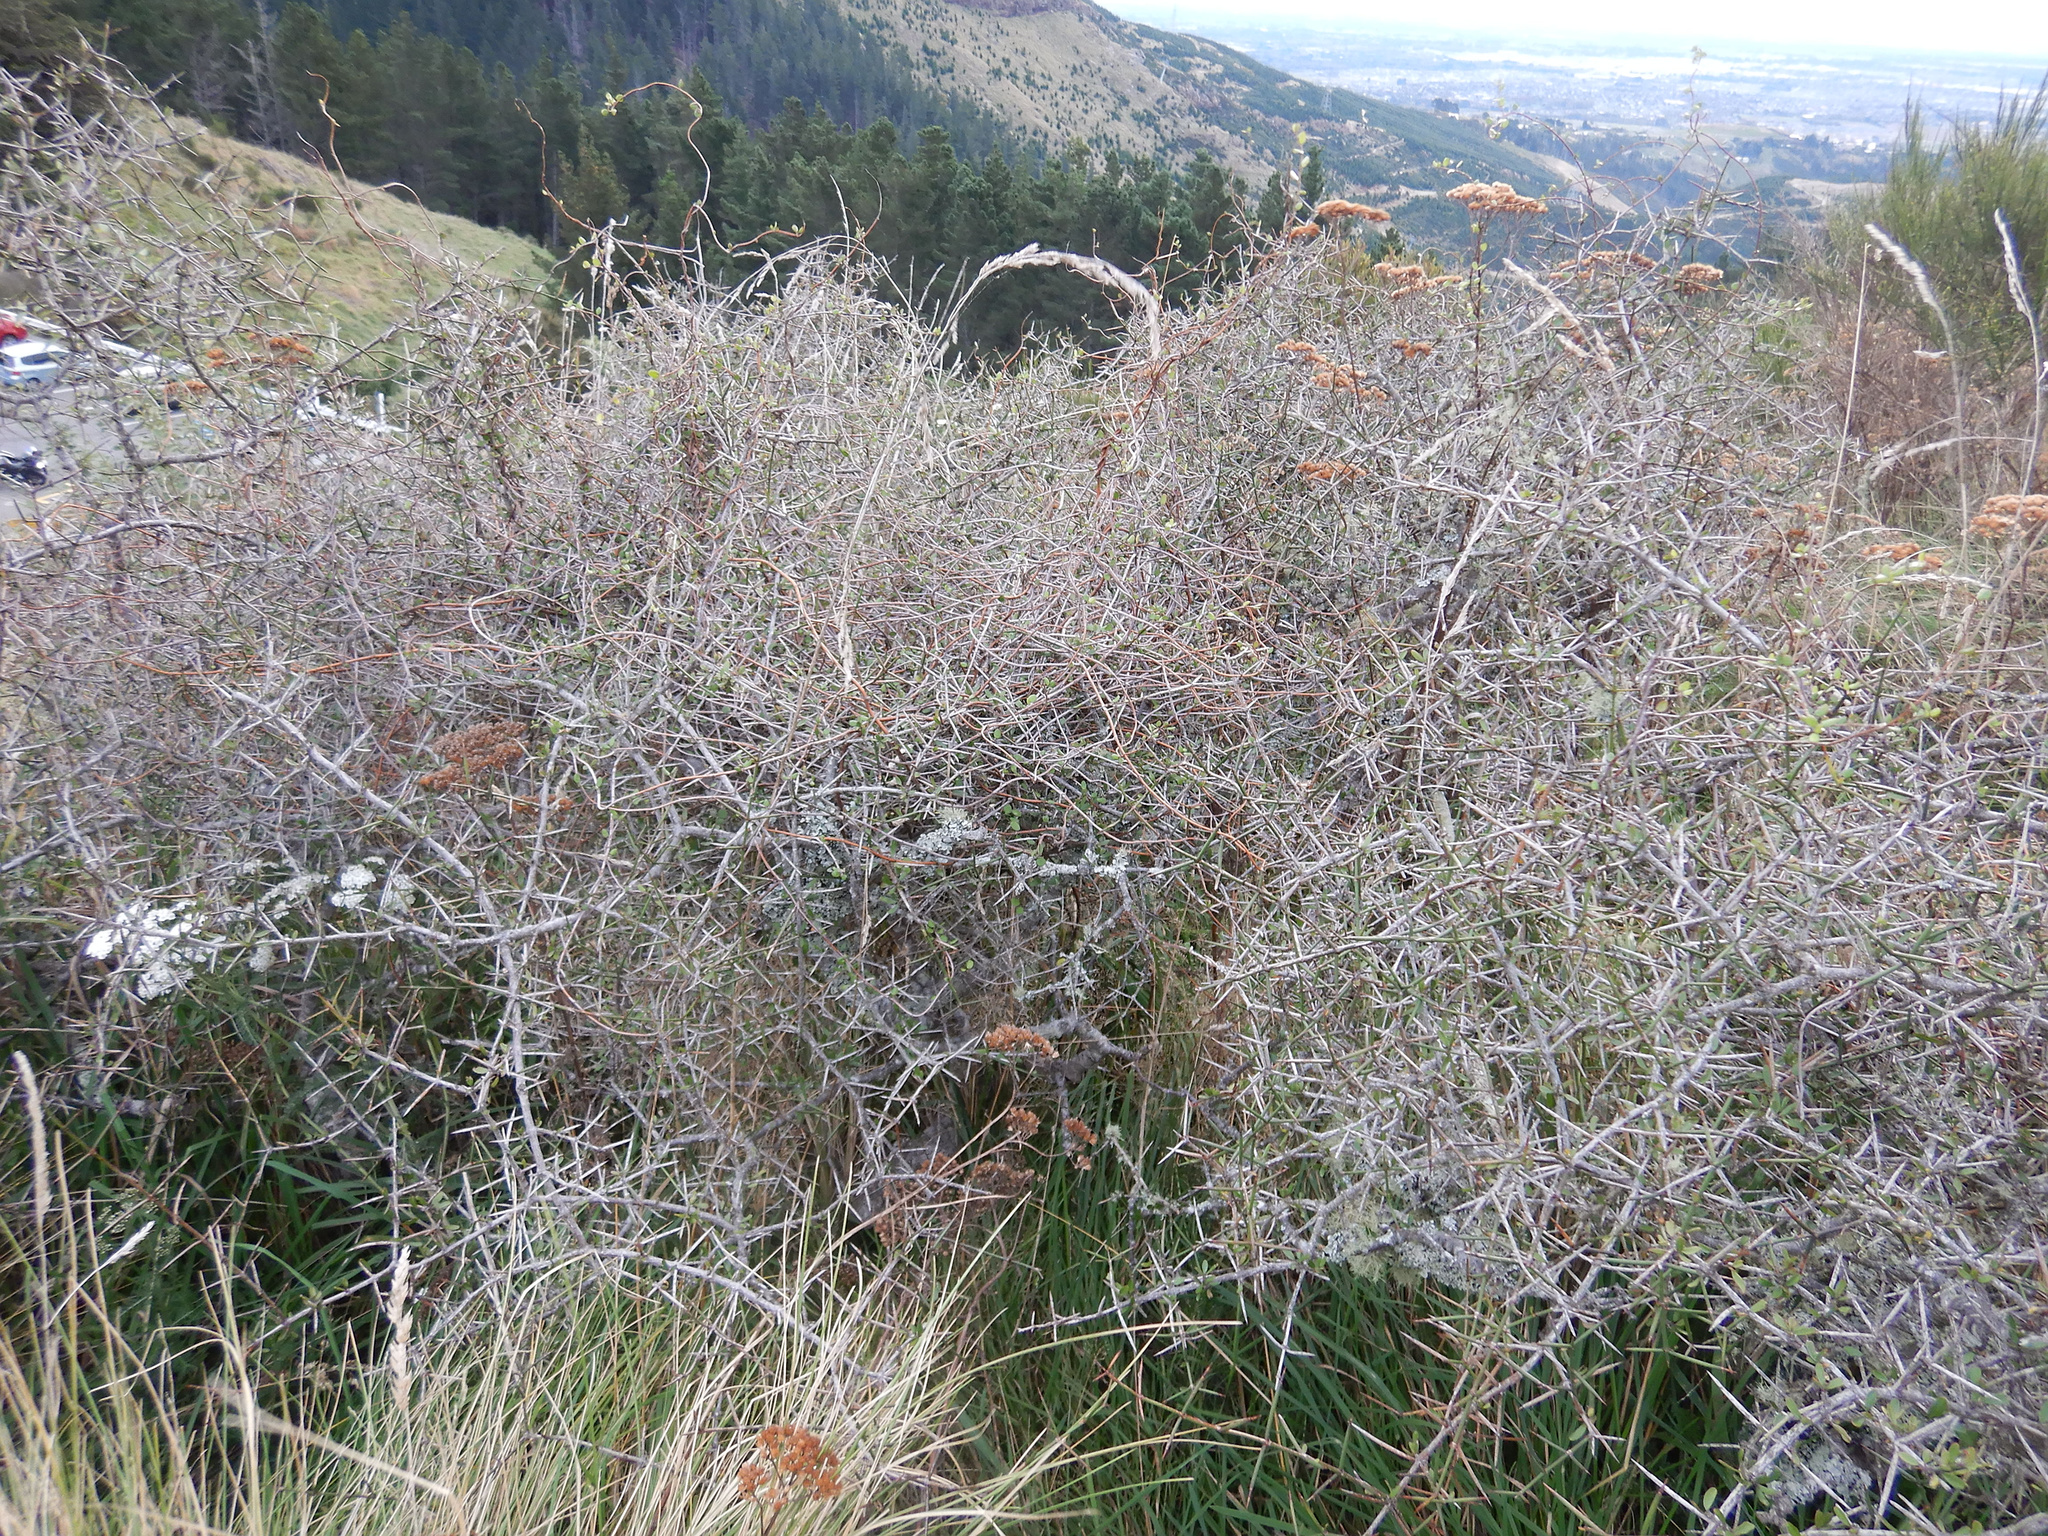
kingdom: Plantae
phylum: Tracheophyta
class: Magnoliopsida
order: Rosales
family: Rhamnaceae
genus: Discaria
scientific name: Discaria toumatou
